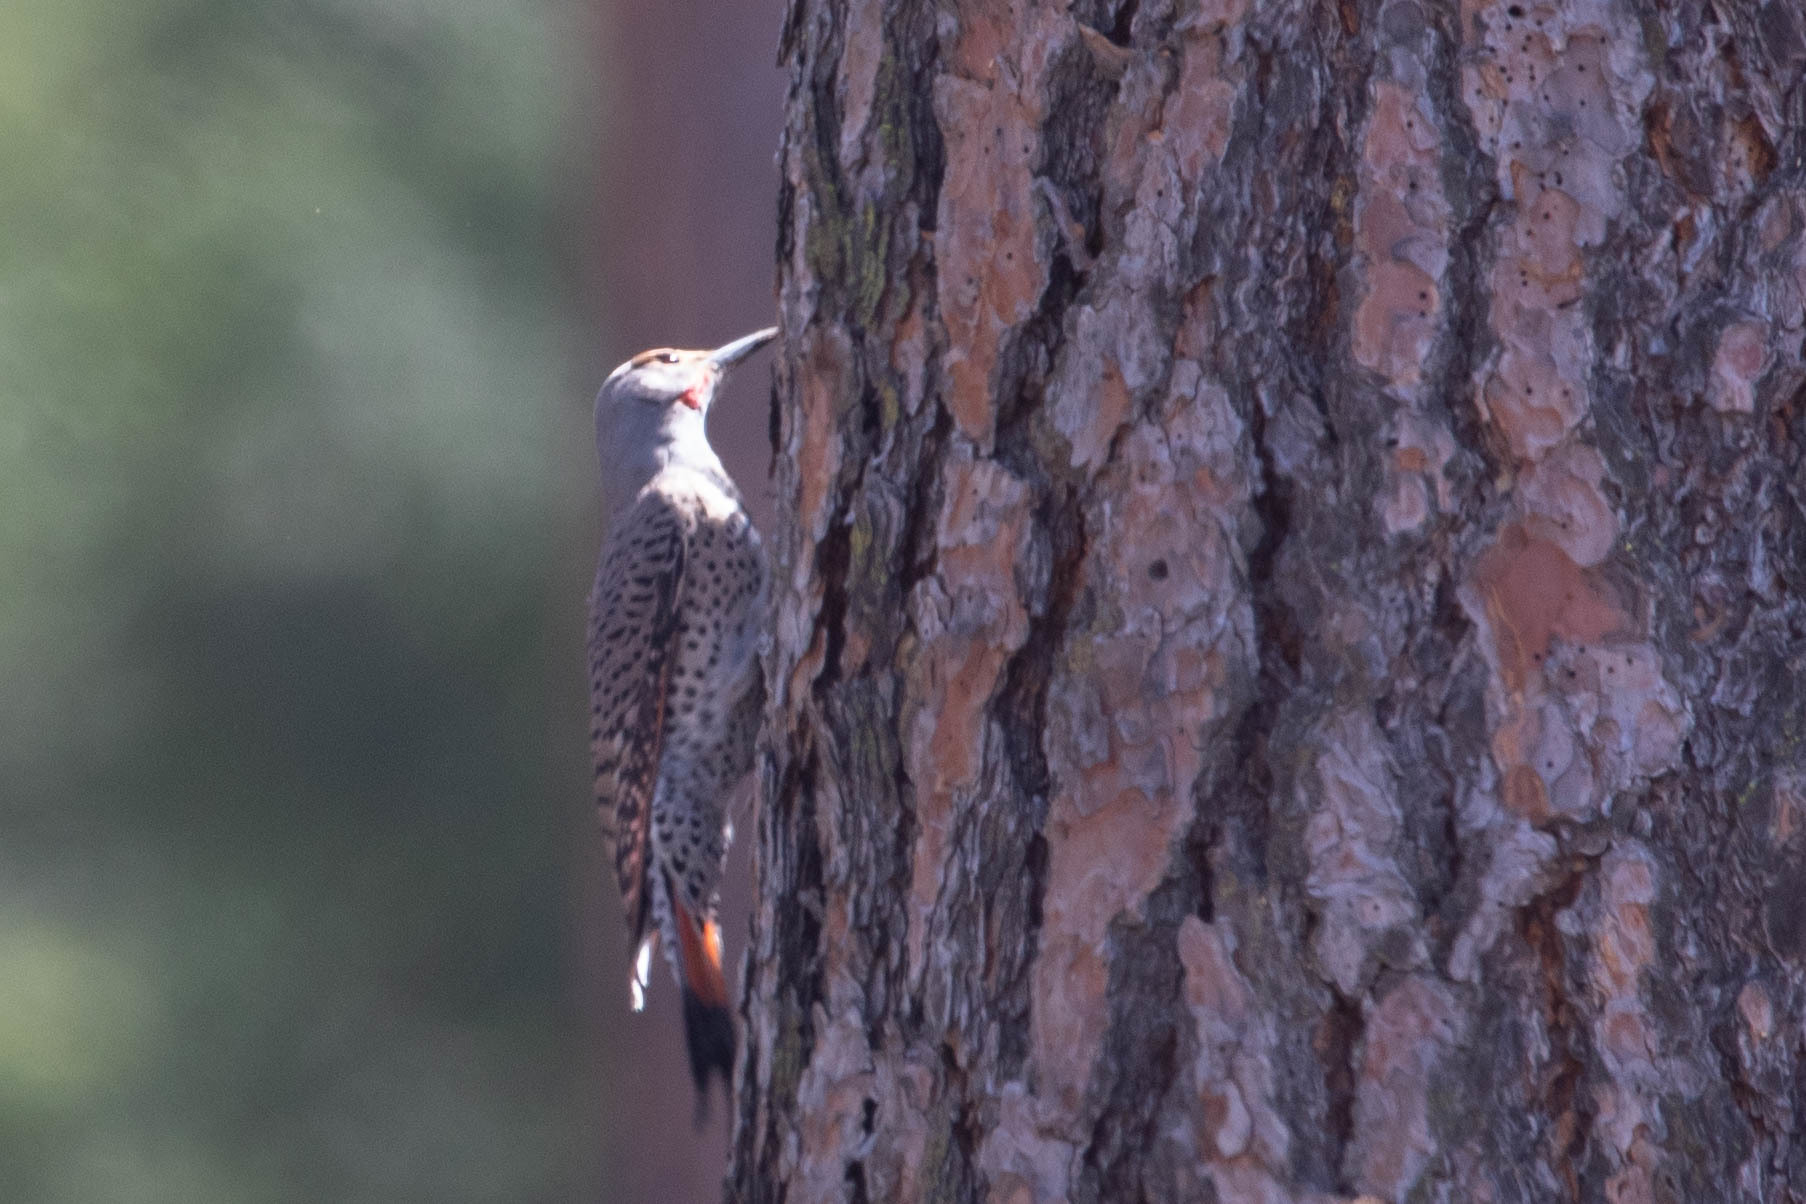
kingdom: Animalia
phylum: Chordata
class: Aves
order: Piciformes
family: Picidae
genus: Colaptes
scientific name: Colaptes auratus
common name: Northern flicker
